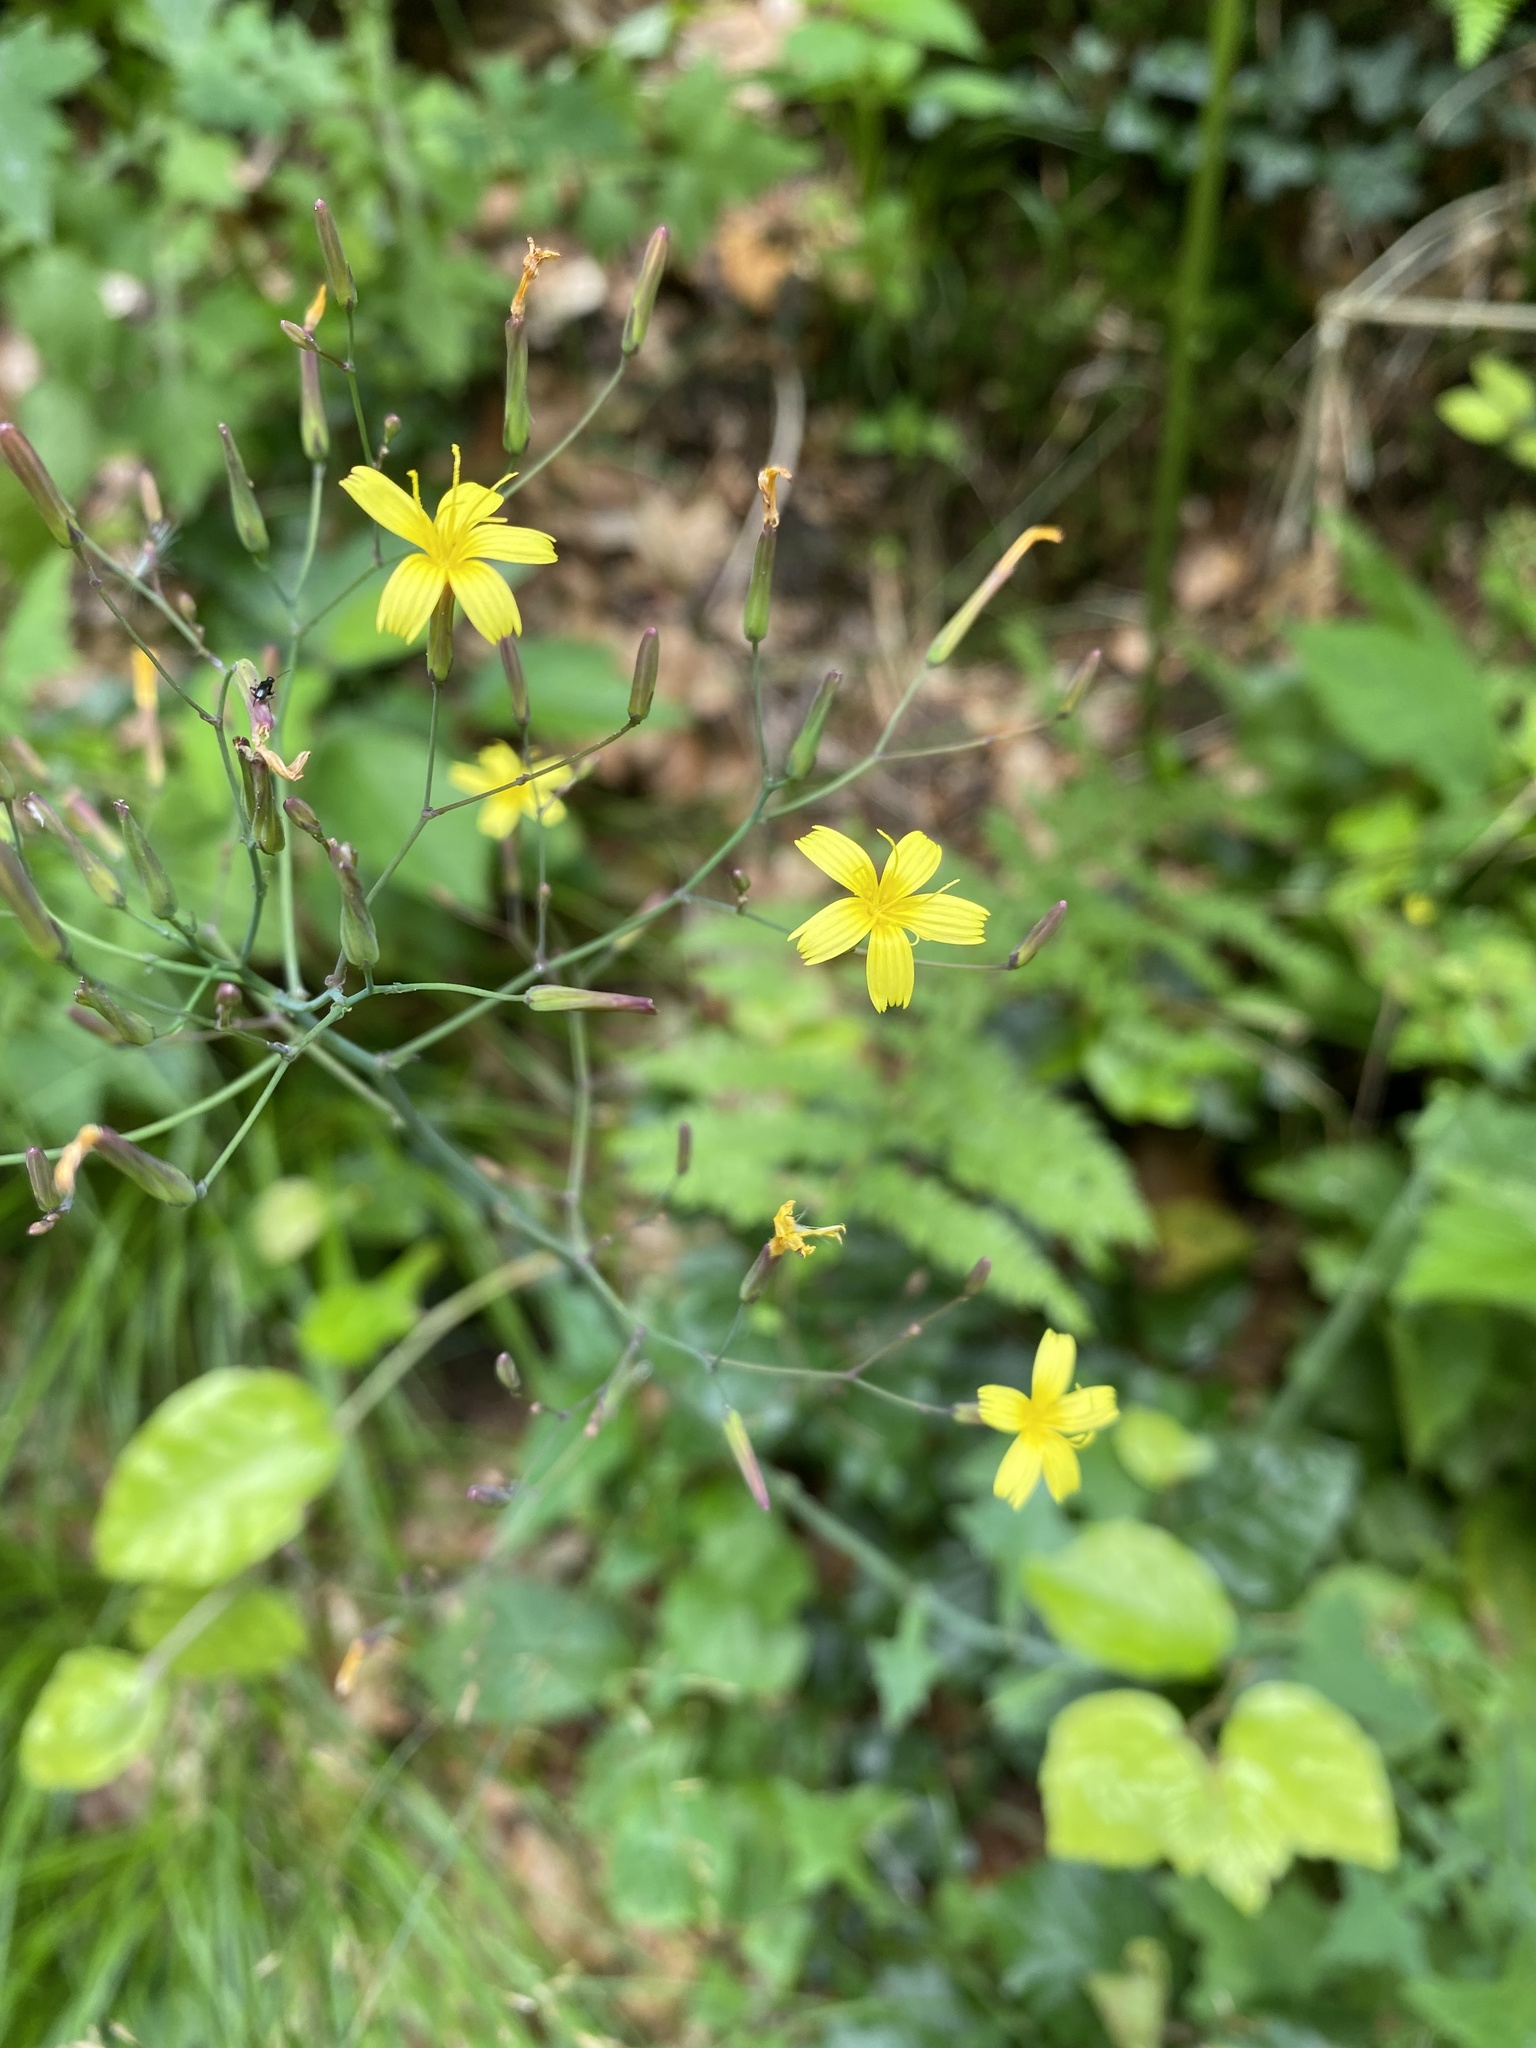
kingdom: Plantae
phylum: Tracheophyta
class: Magnoliopsida
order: Asterales
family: Asteraceae
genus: Mycelis
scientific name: Mycelis muralis
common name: Wall lettuce
